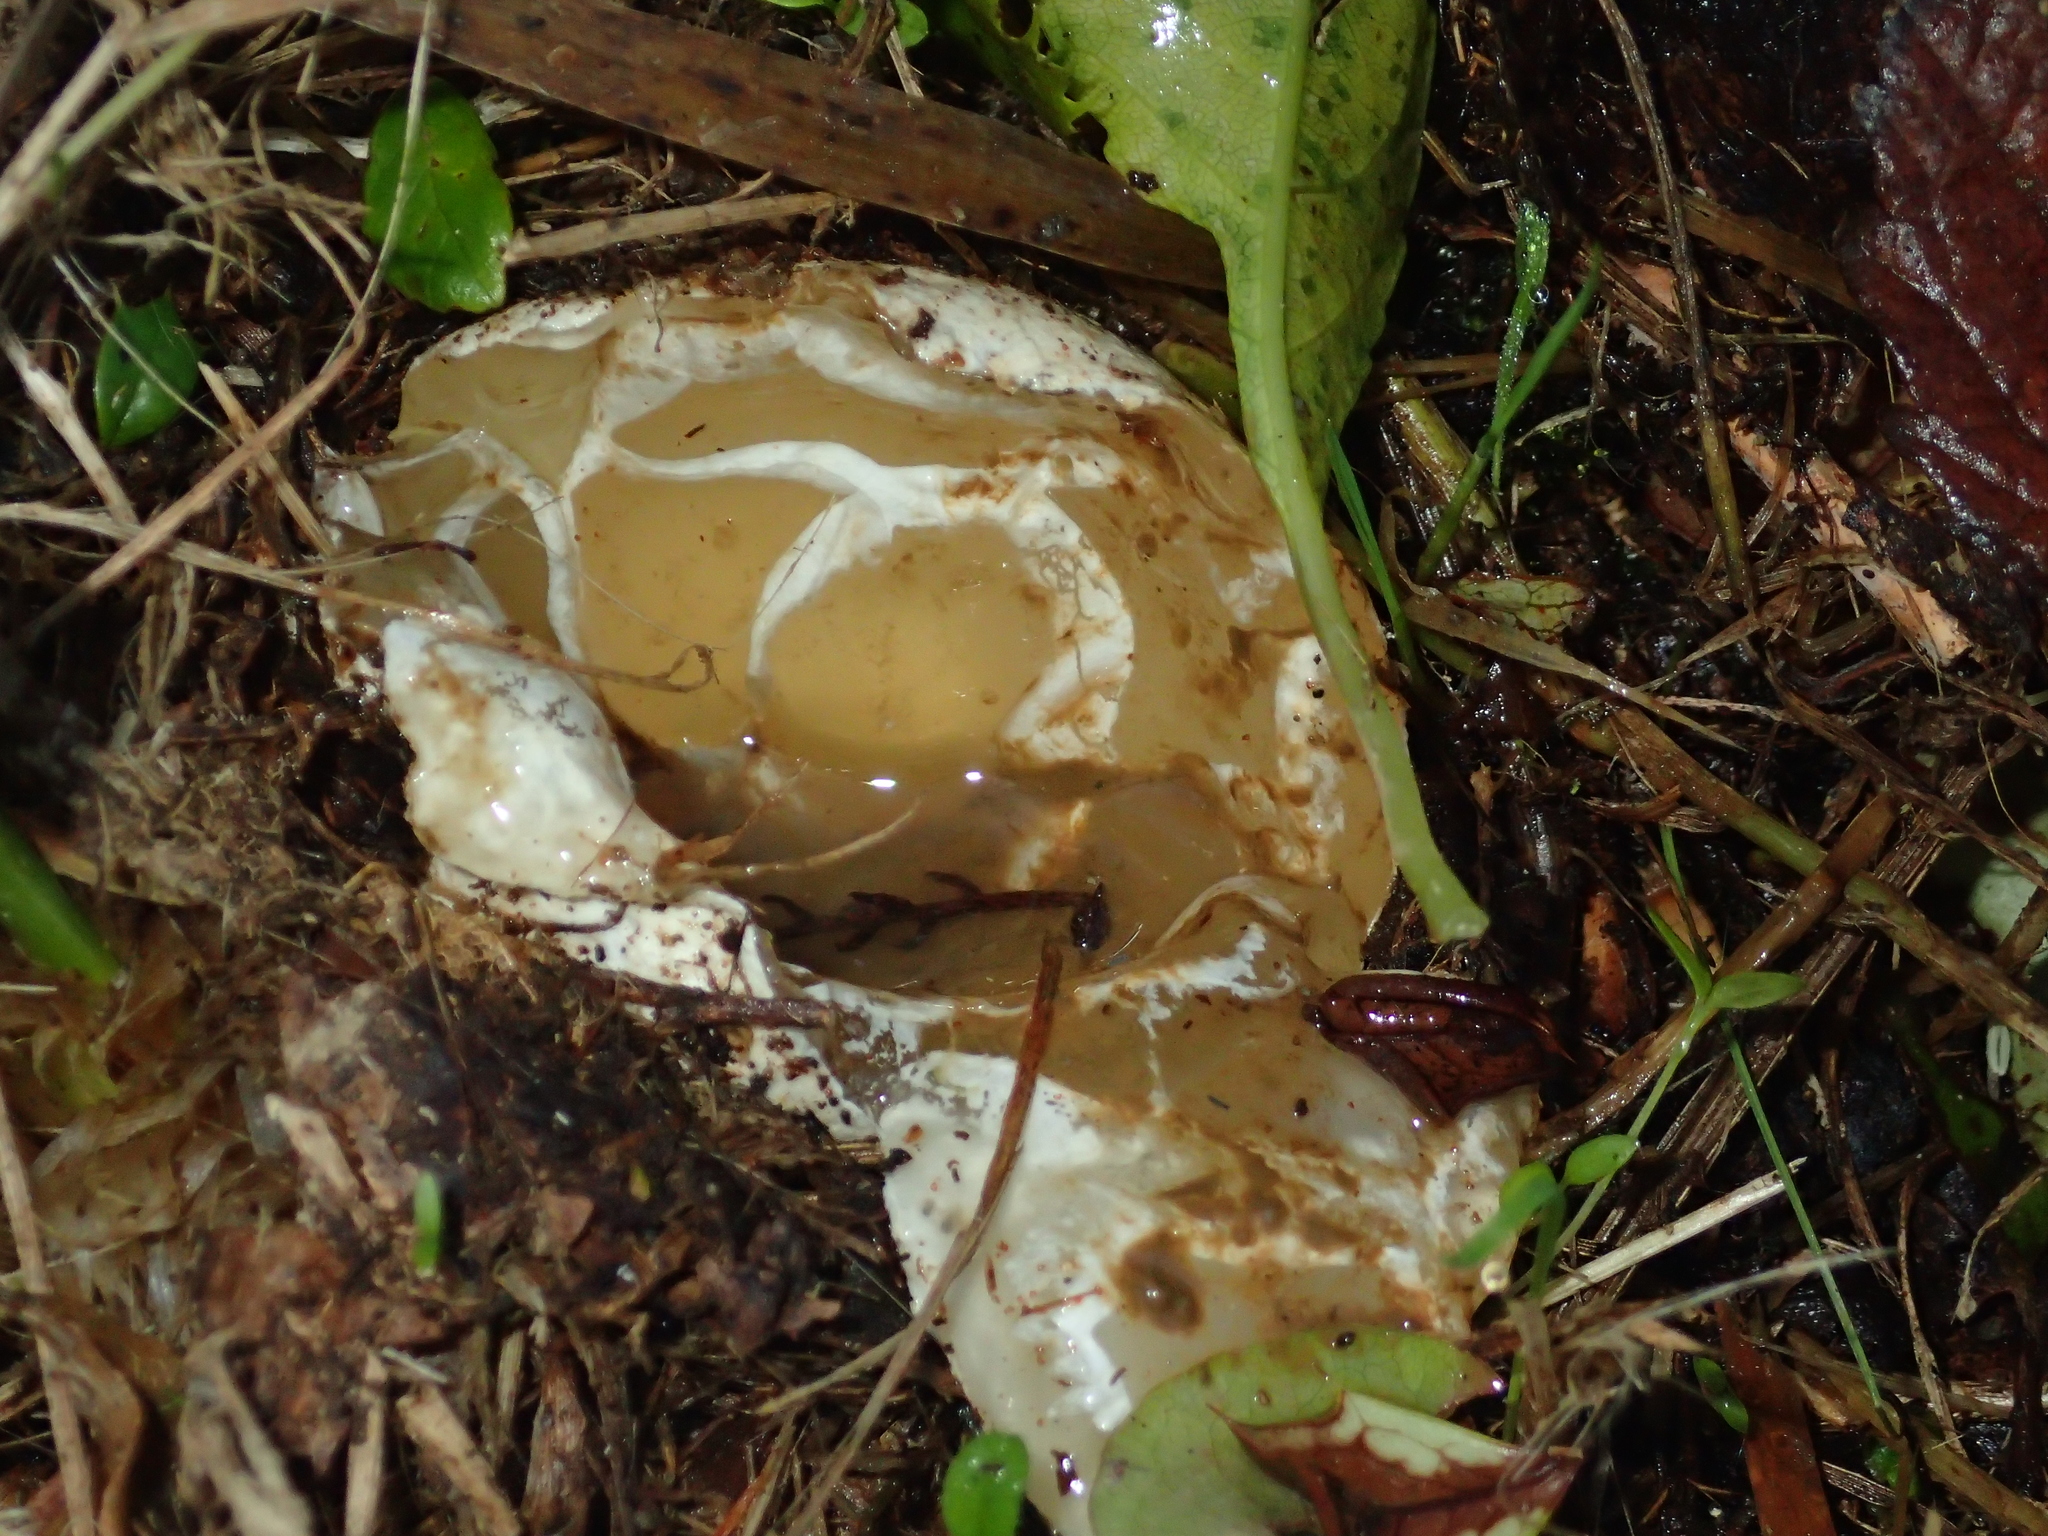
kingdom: Fungi
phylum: Basidiomycota
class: Agaricomycetes
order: Phallales
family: Phallaceae
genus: Ileodictyon
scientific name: Ileodictyon cibarium
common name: Basket fungus
